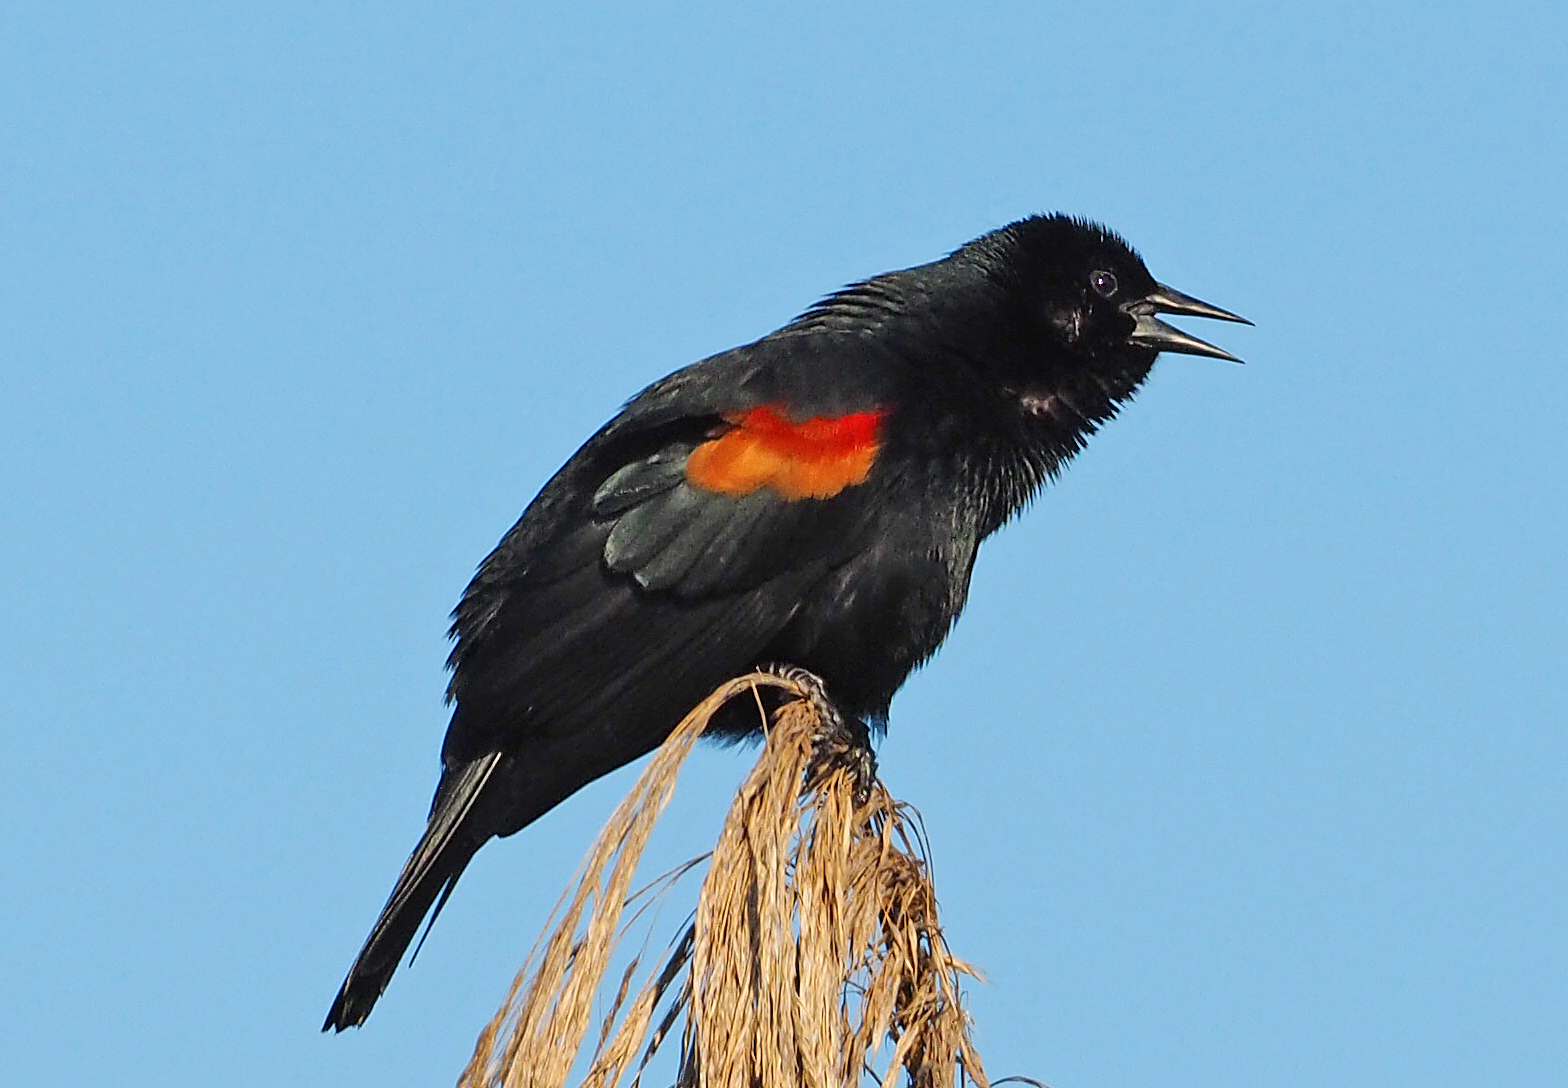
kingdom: Animalia
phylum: Chordata
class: Aves
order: Passeriformes
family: Icteridae
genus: Agelaius
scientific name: Agelaius phoeniceus
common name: Red-winged blackbird
